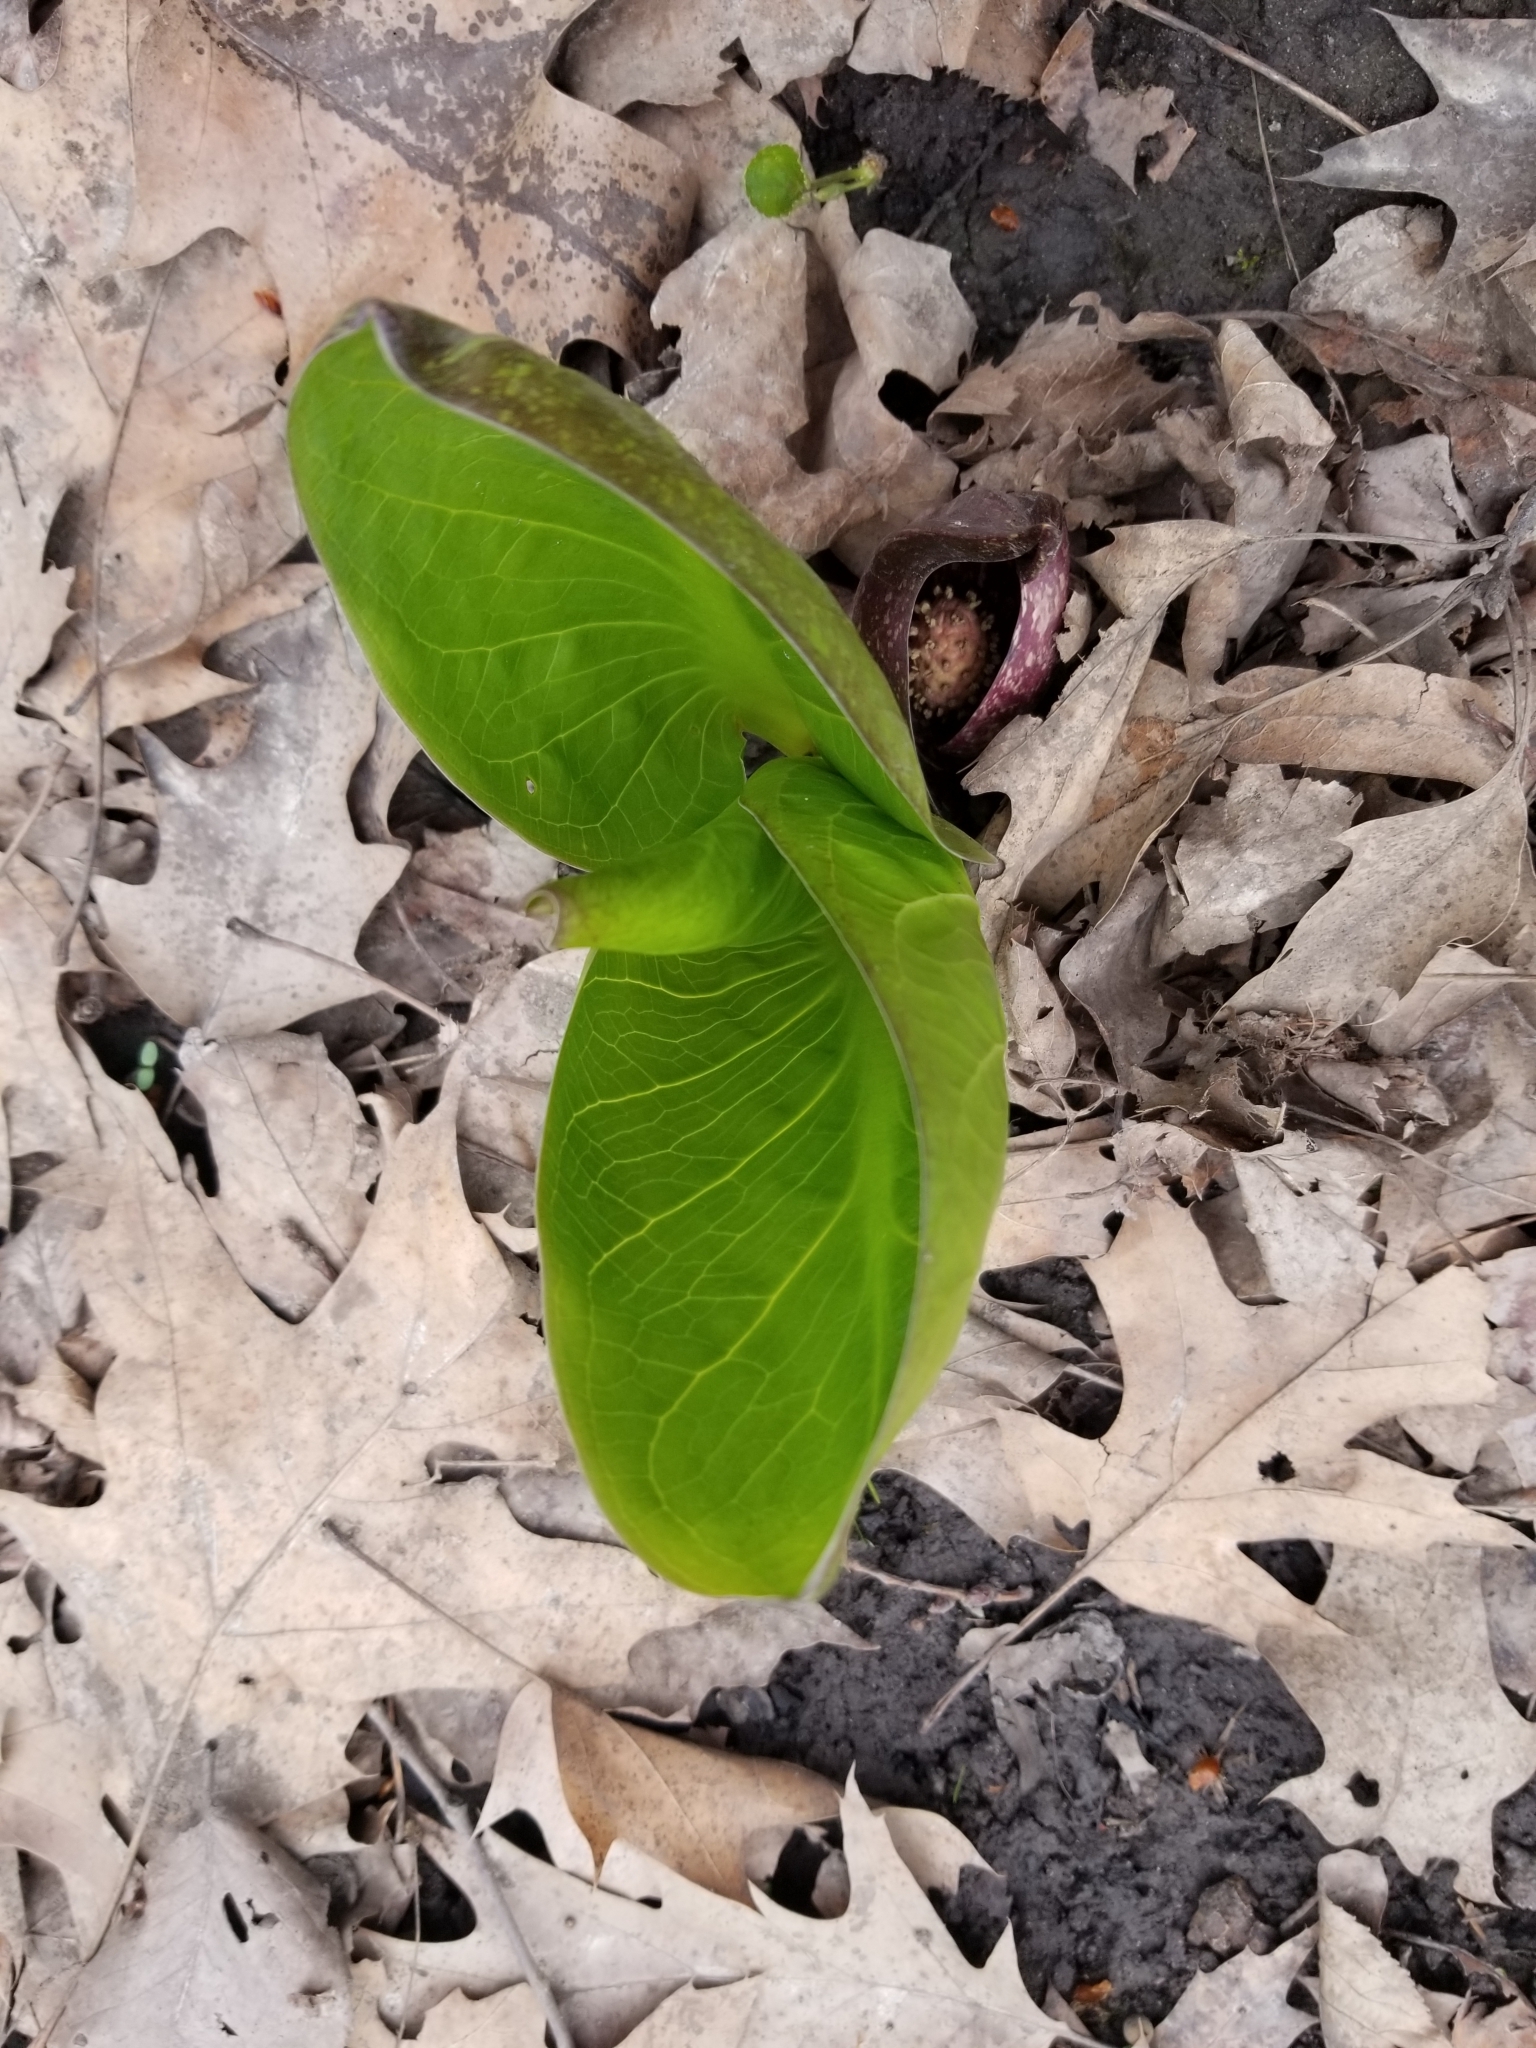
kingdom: Plantae
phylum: Tracheophyta
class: Liliopsida
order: Alismatales
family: Araceae
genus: Symplocarpus
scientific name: Symplocarpus foetidus
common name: Eastern skunk cabbage
